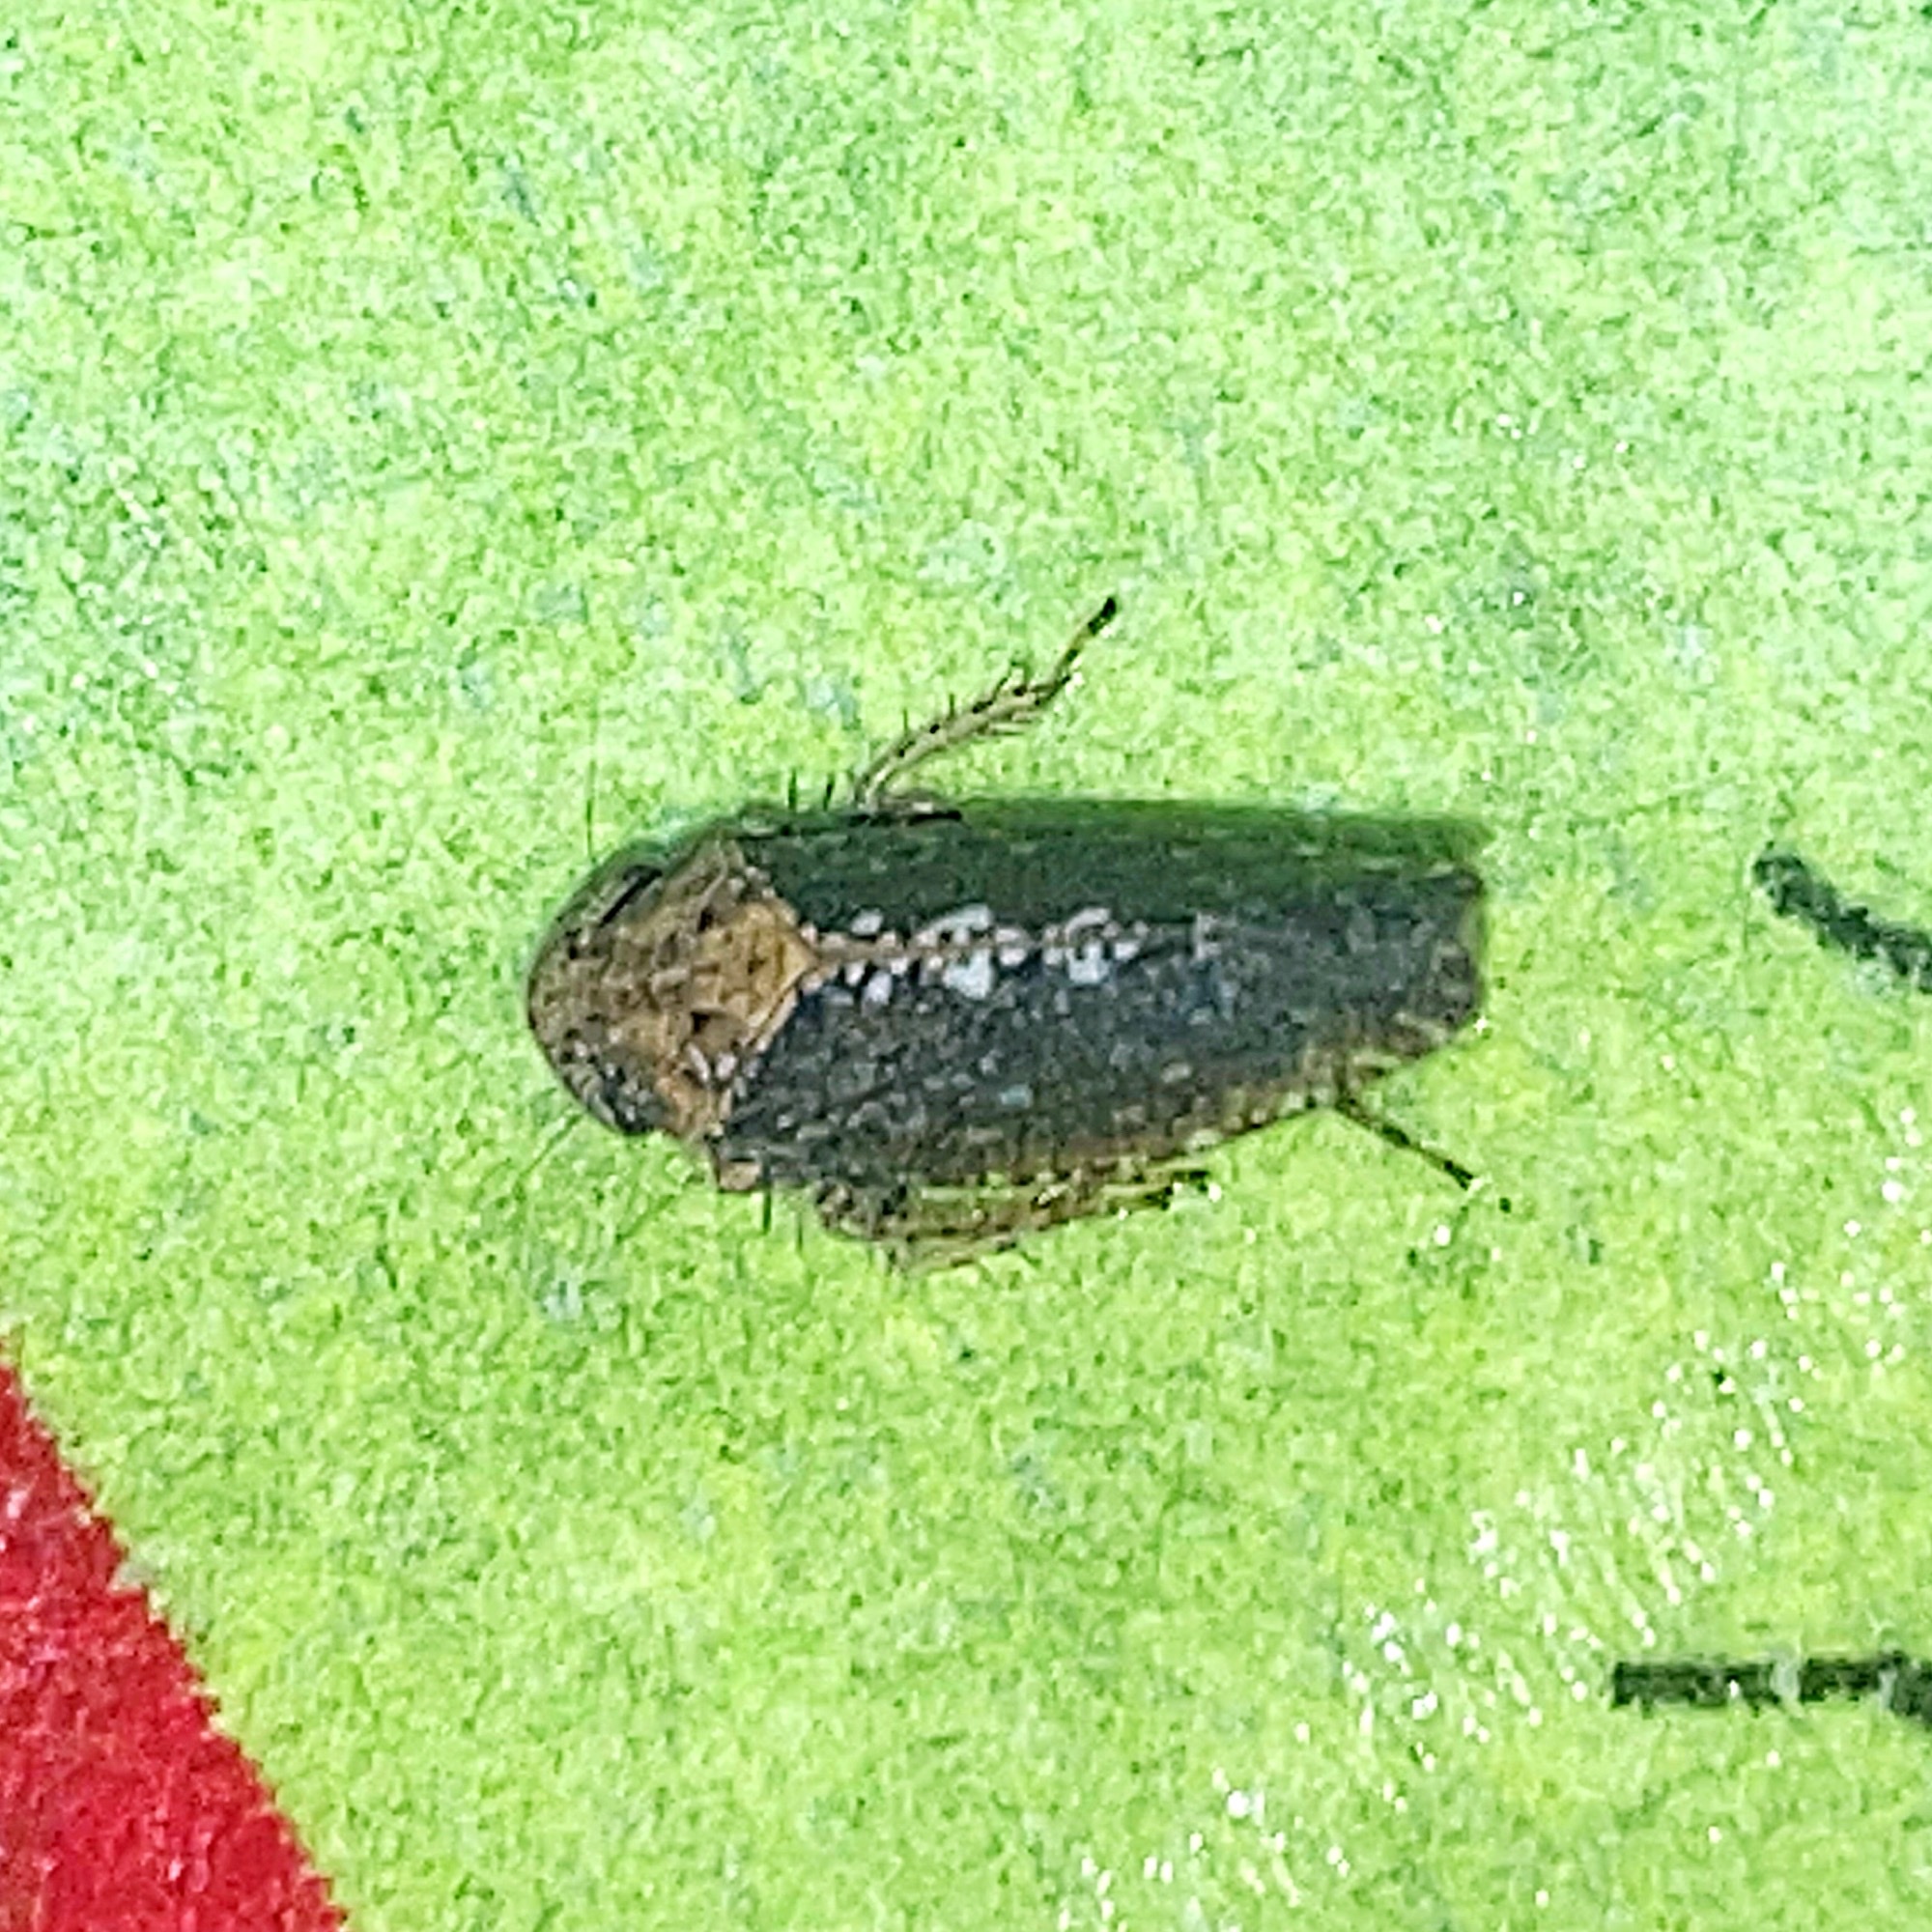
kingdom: Animalia
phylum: Arthropoda
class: Insecta
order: Hemiptera
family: Cicadellidae
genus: Excultanus
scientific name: Excultanus excultus
